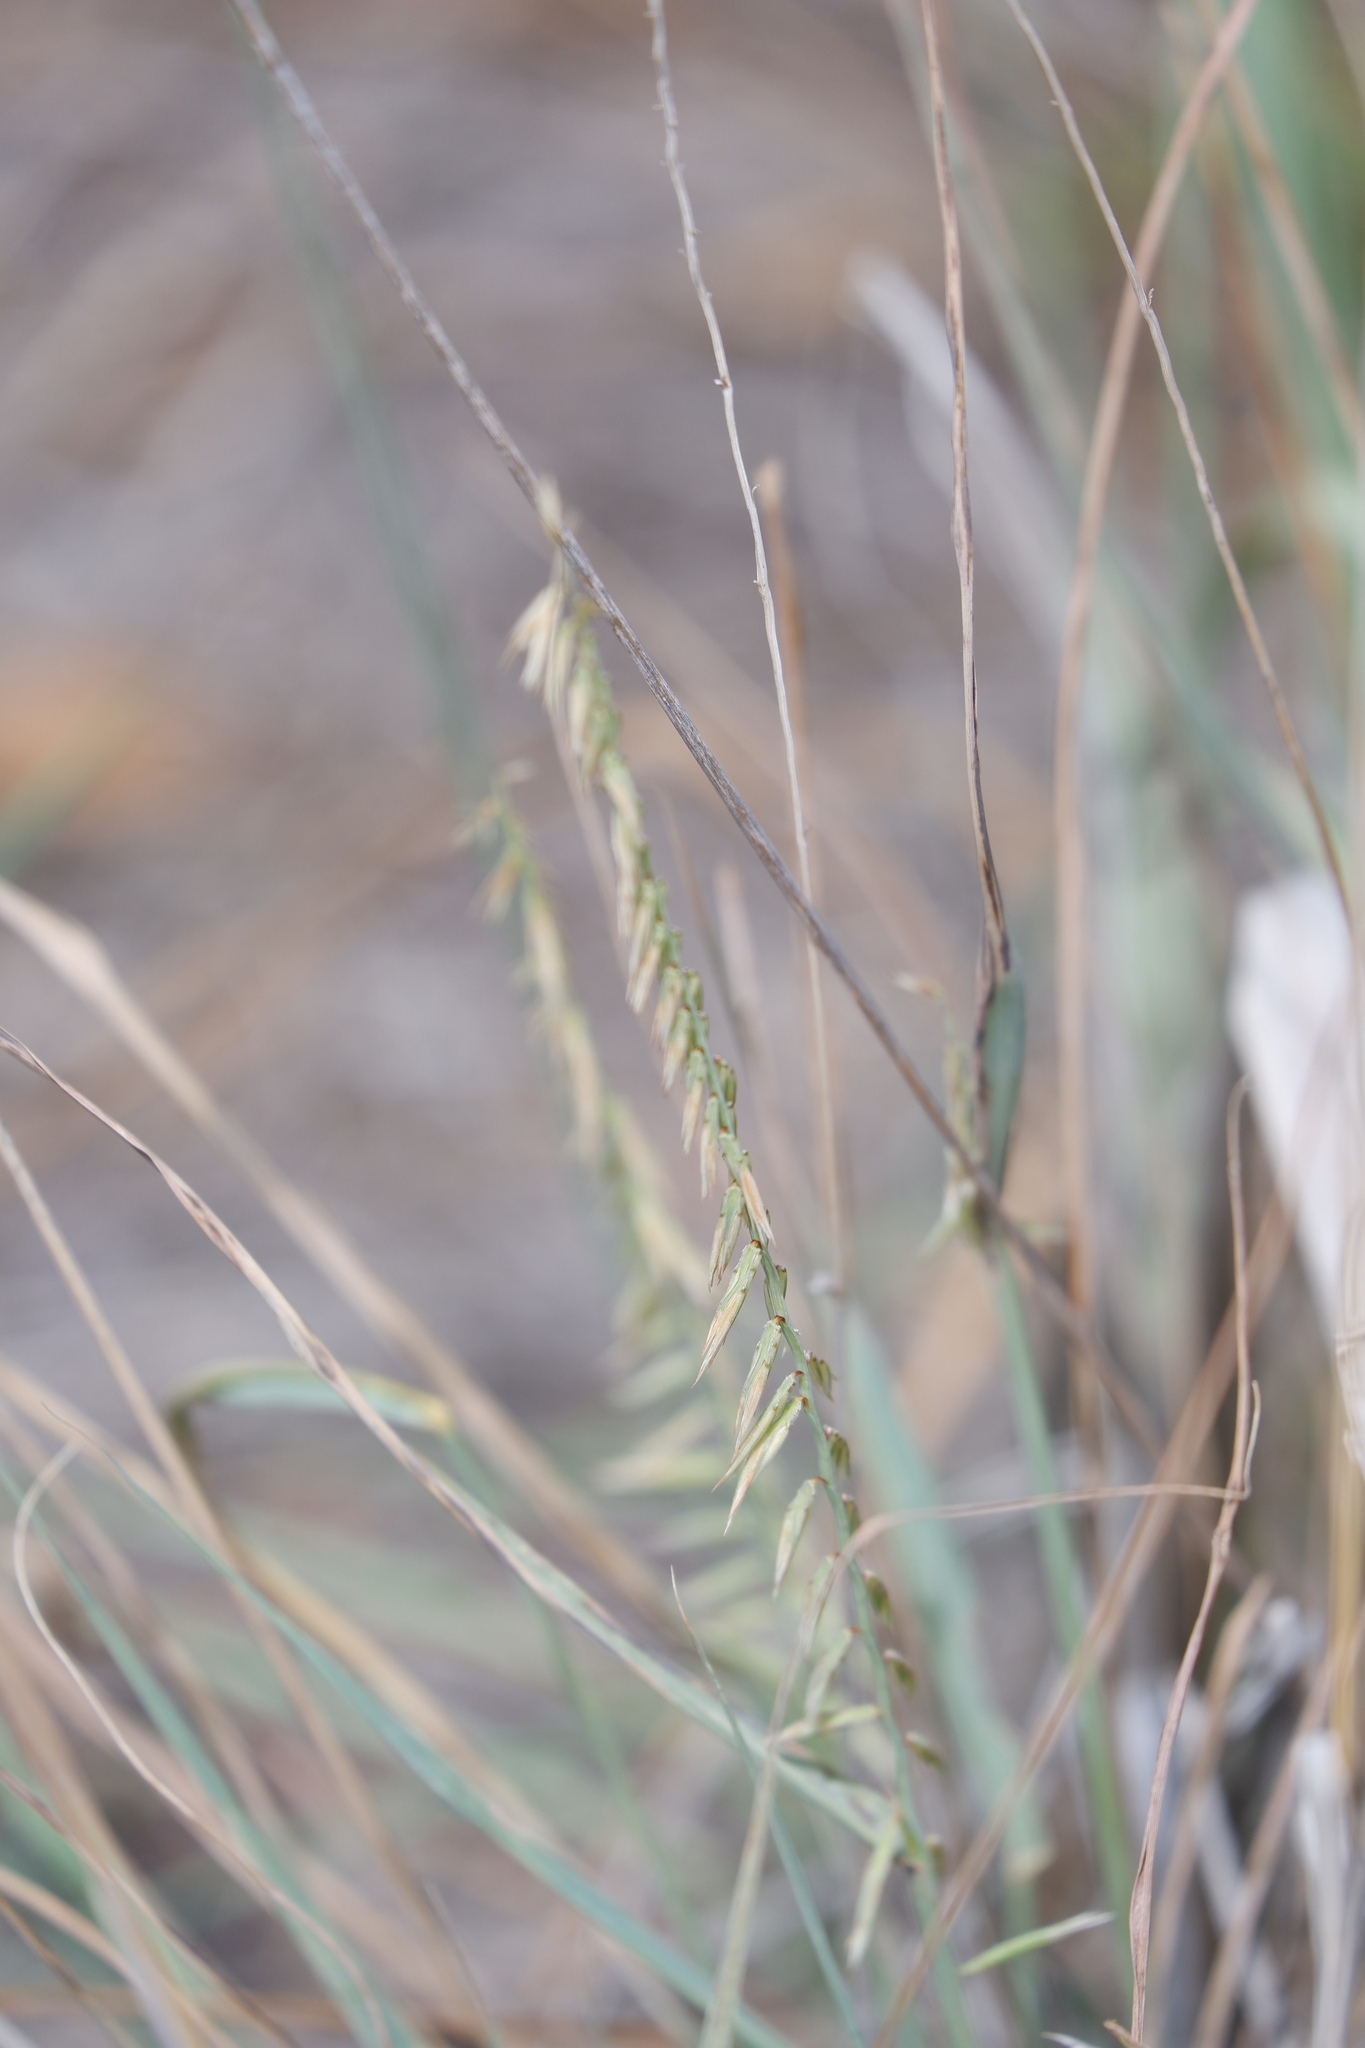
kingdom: Plantae
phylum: Tracheophyta
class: Liliopsida
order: Poales
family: Poaceae
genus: Bouteloua
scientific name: Bouteloua curtipendula
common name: Side-oats grama
